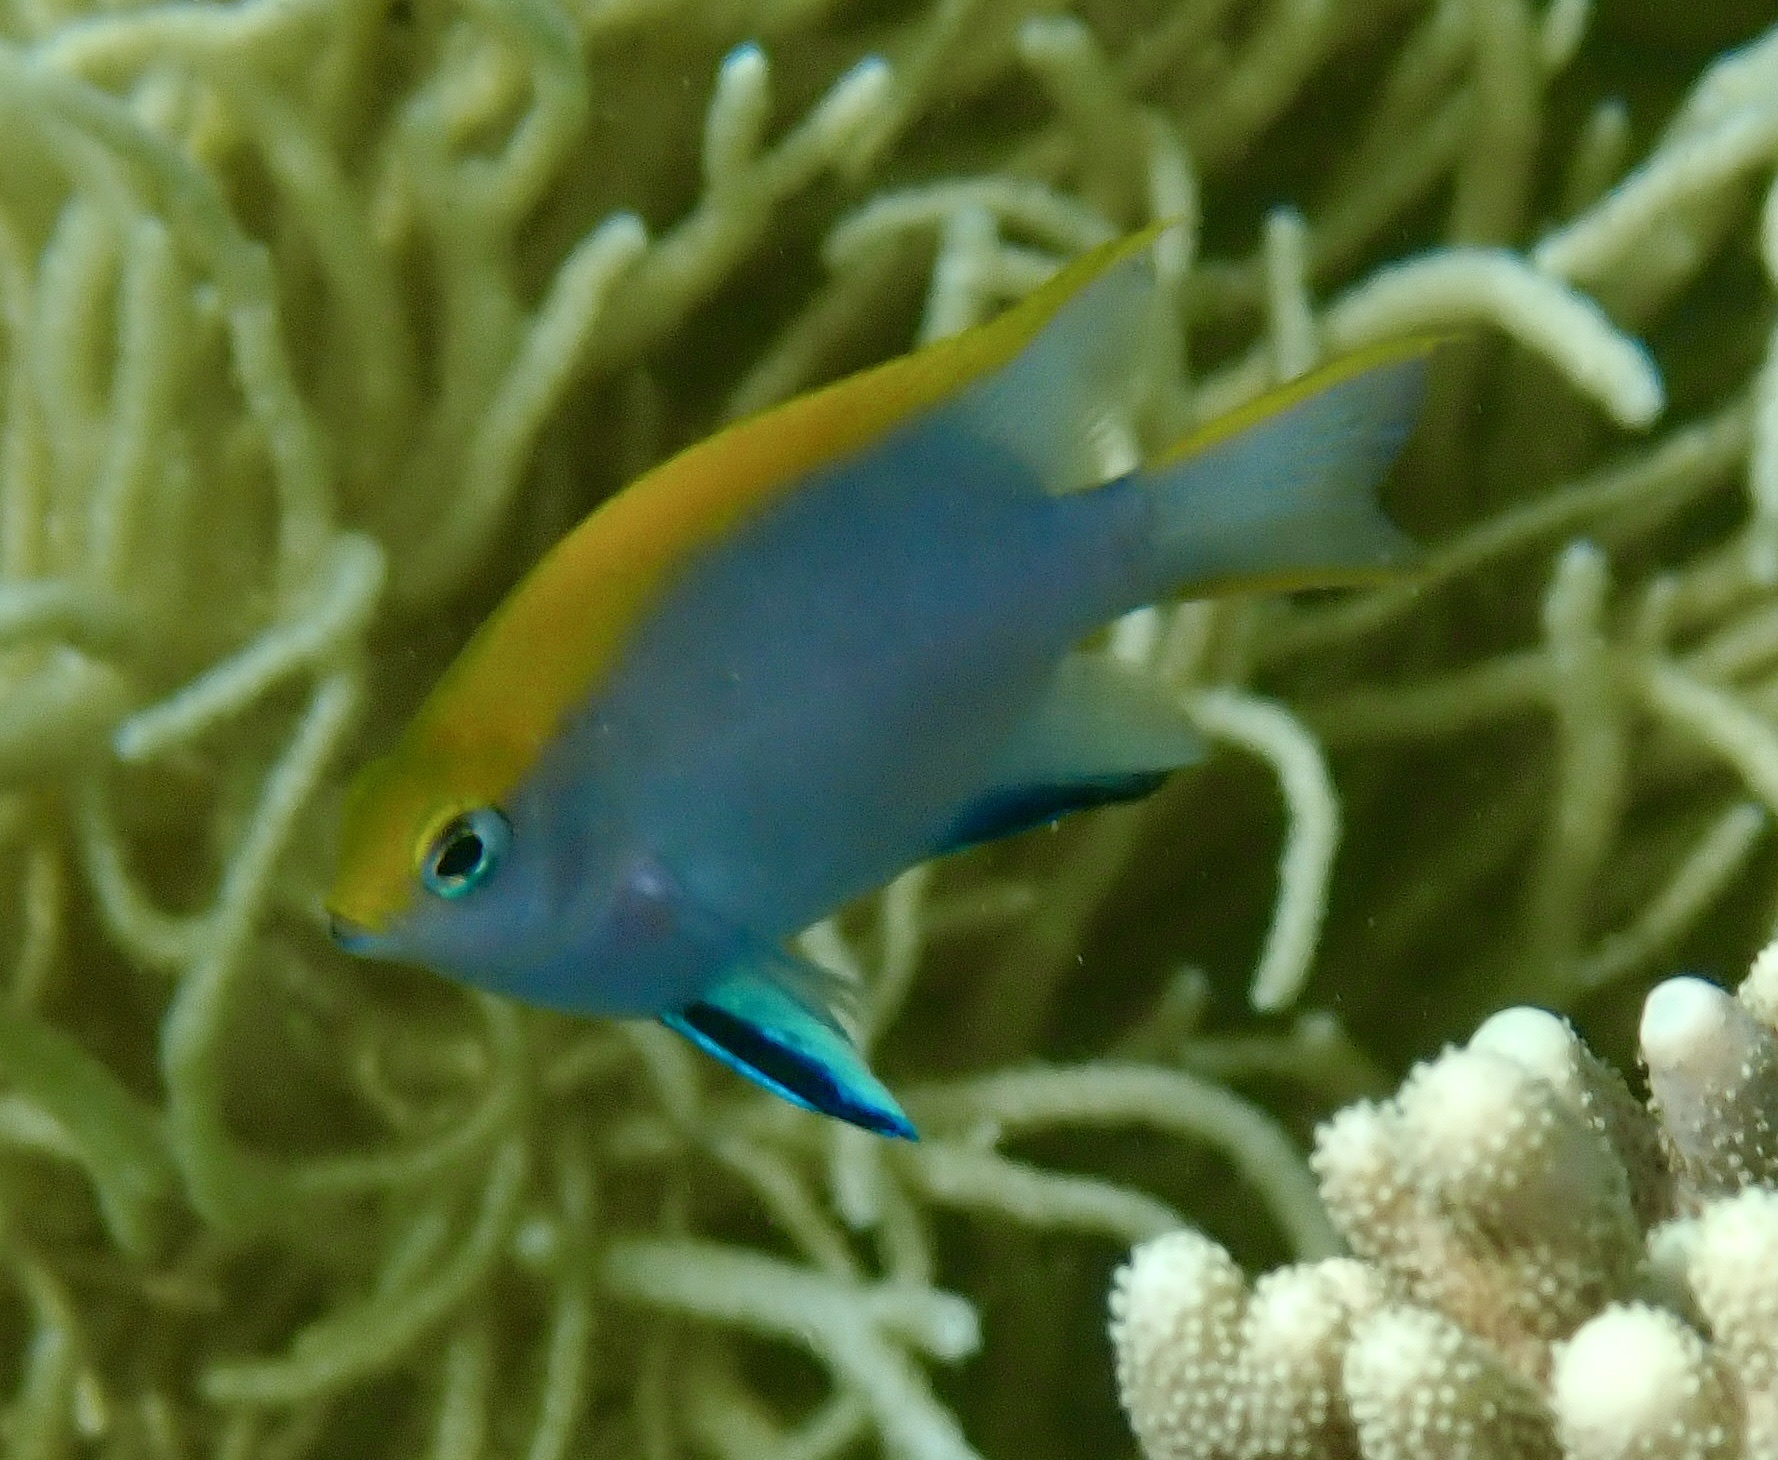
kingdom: Animalia
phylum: Chordata
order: Perciformes
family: Pomacentridae
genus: Neoglyphidodon
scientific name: Neoglyphidodon melas
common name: Black damsel
